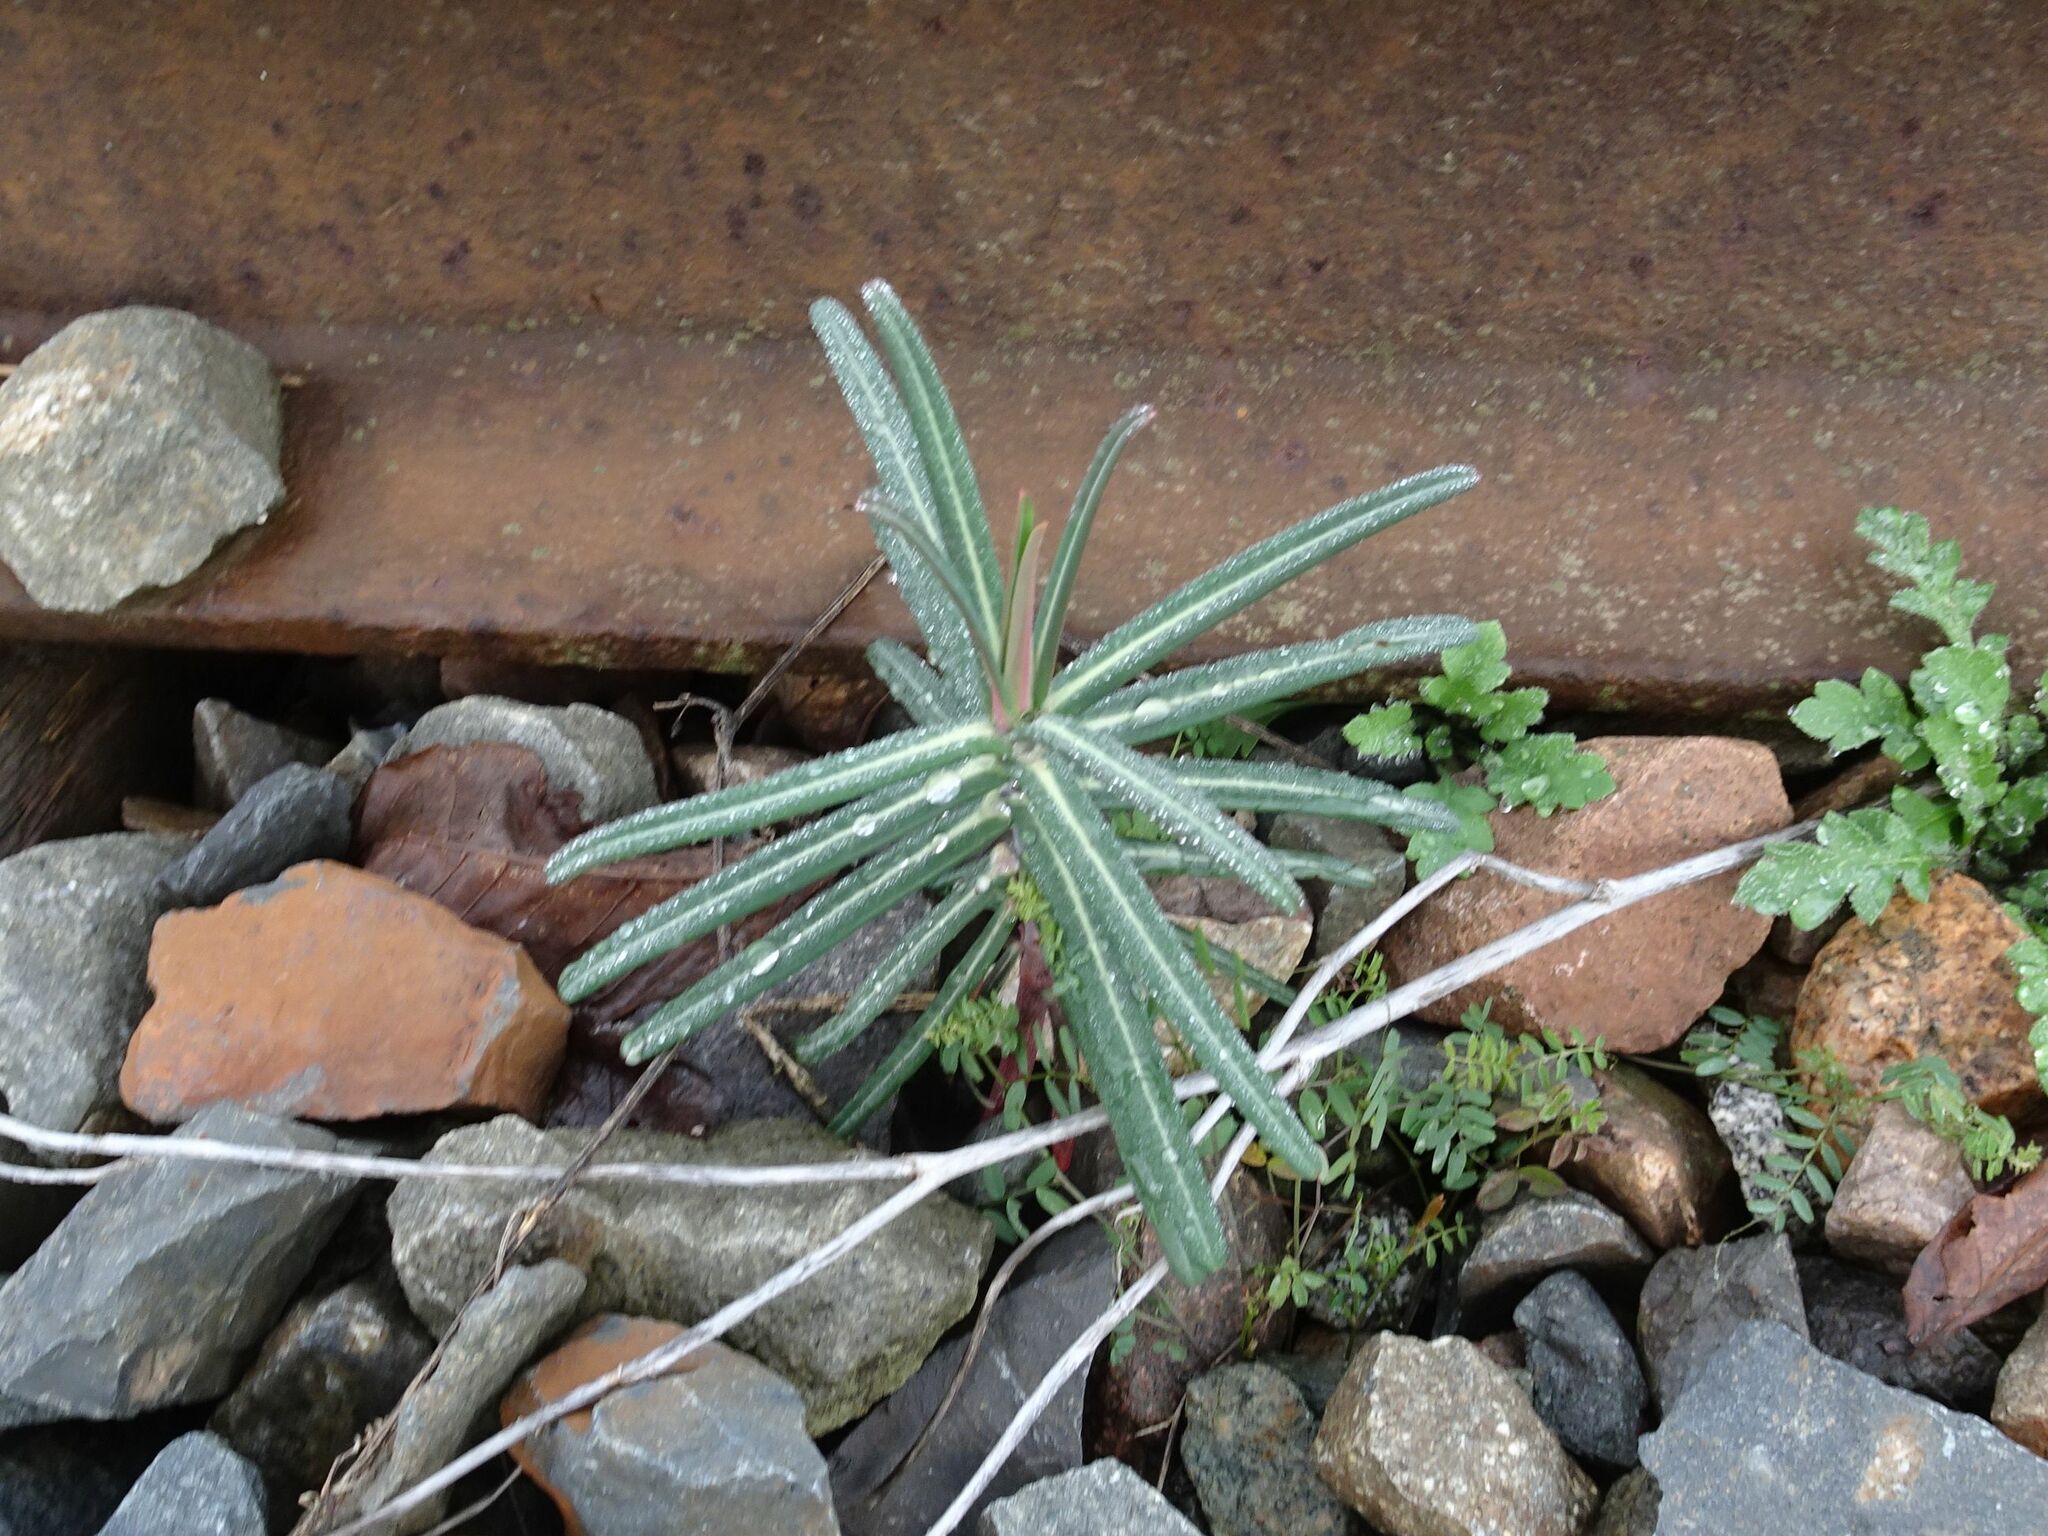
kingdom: Plantae
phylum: Tracheophyta
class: Magnoliopsida
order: Malpighiales
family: Euphorbiaceae
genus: Euphorbia
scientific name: Euphorbia lathyris
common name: Caper spurge
